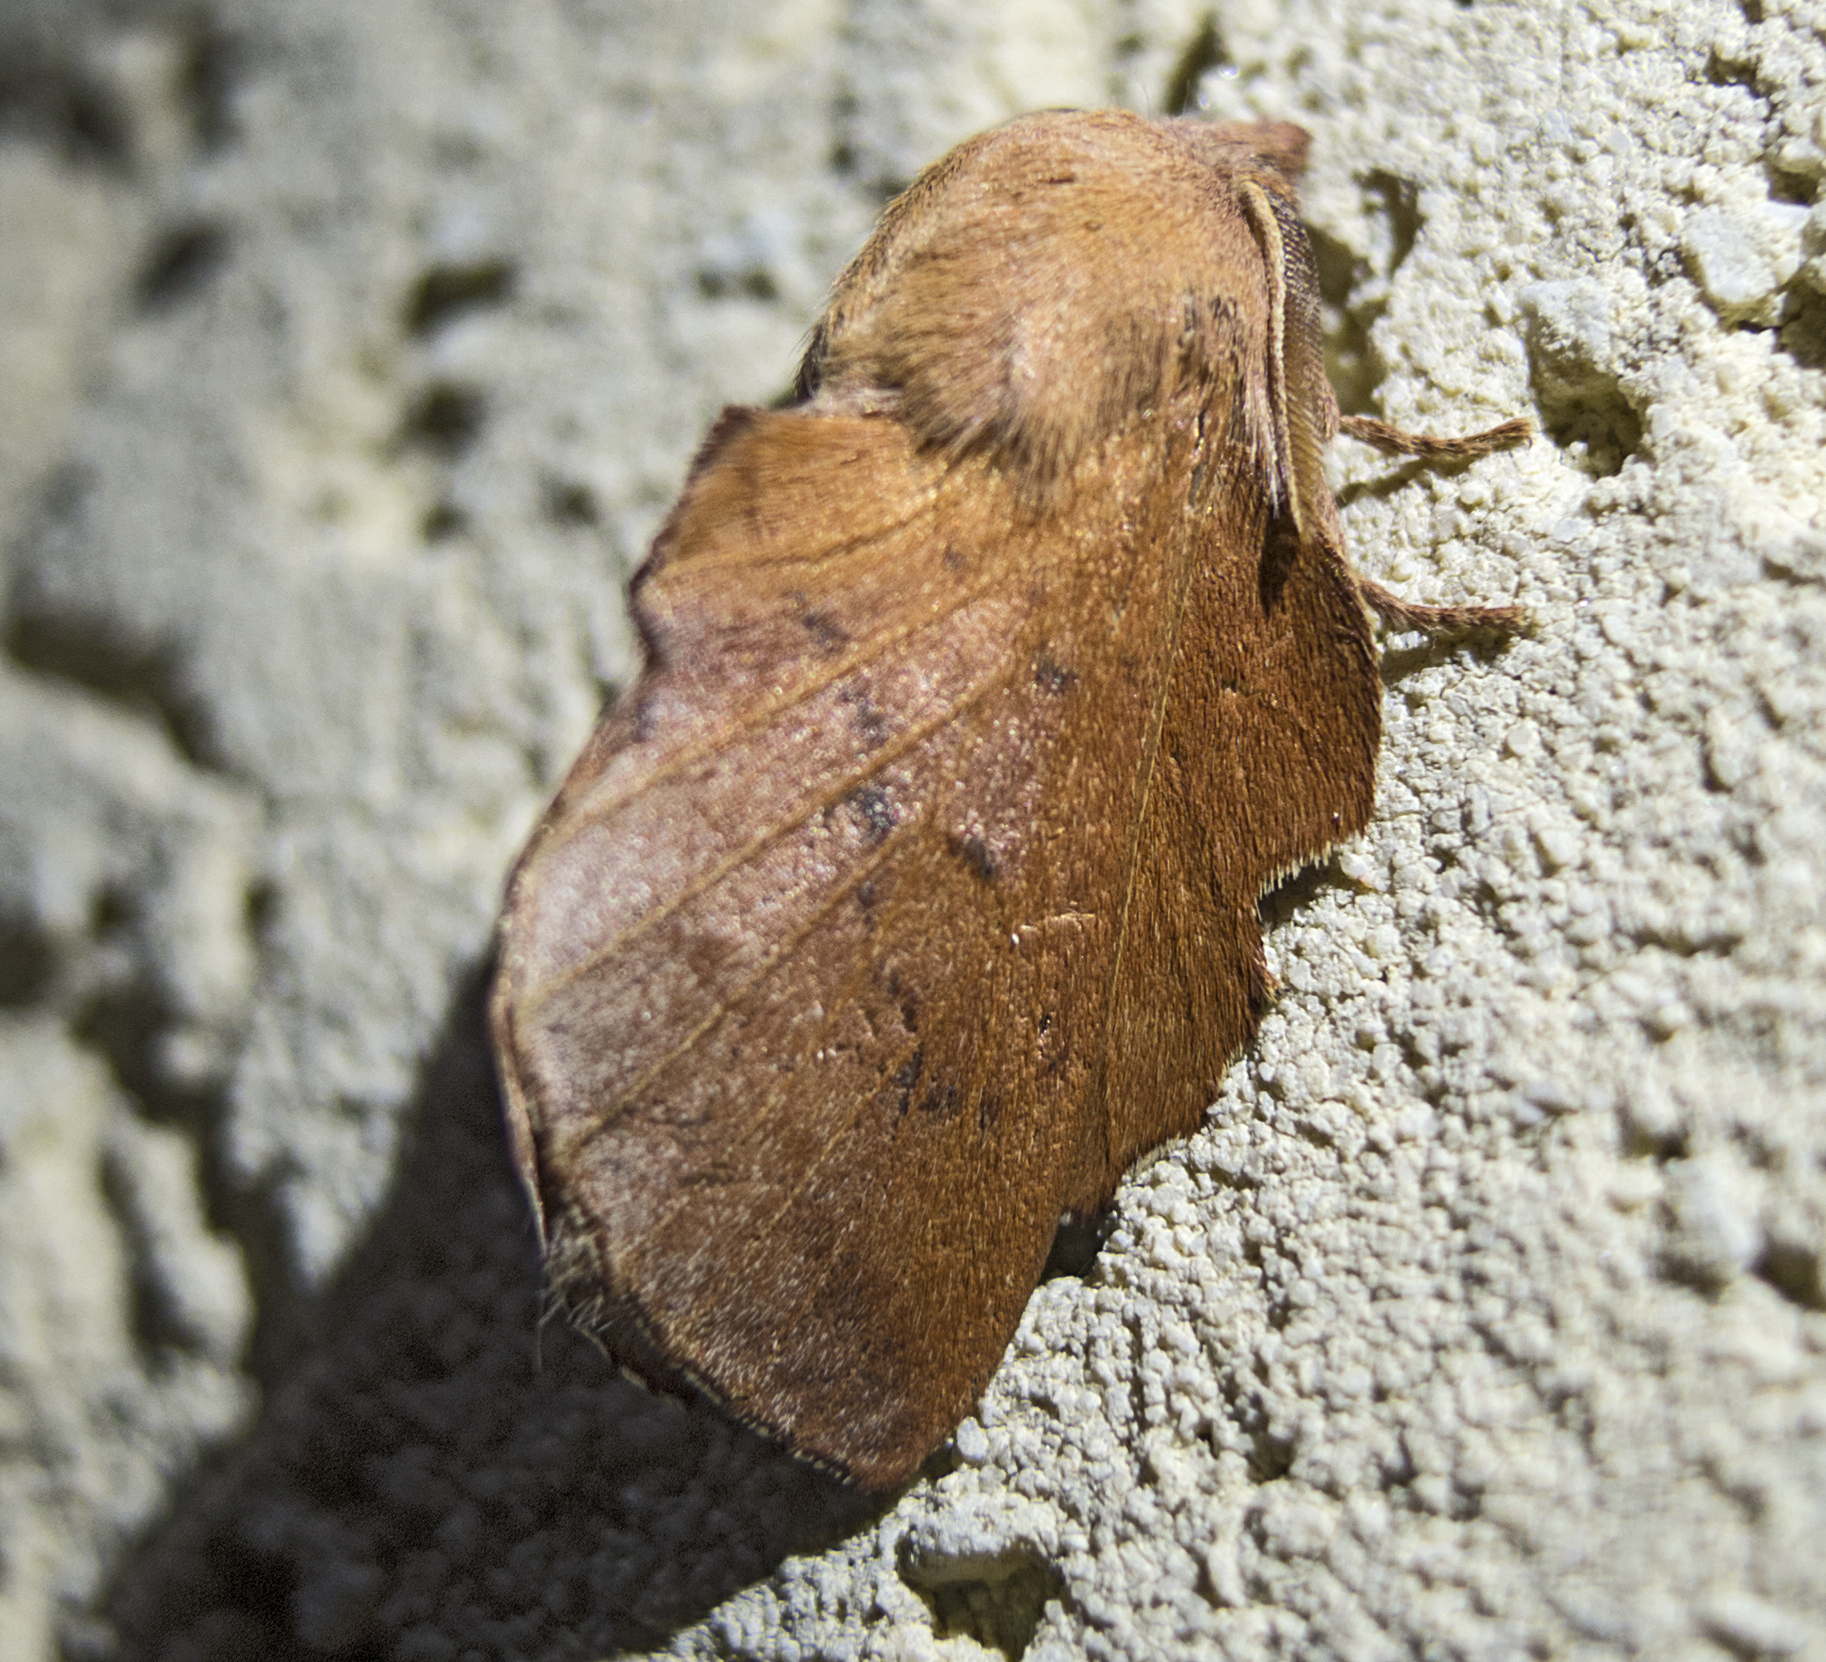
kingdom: Animalia
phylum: Arthropoda
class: Insecta
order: Lepidoptera
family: Lasiocampidae
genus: Phyllodesma
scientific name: Phyllodesma tremulifolia
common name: Aspen lappet
